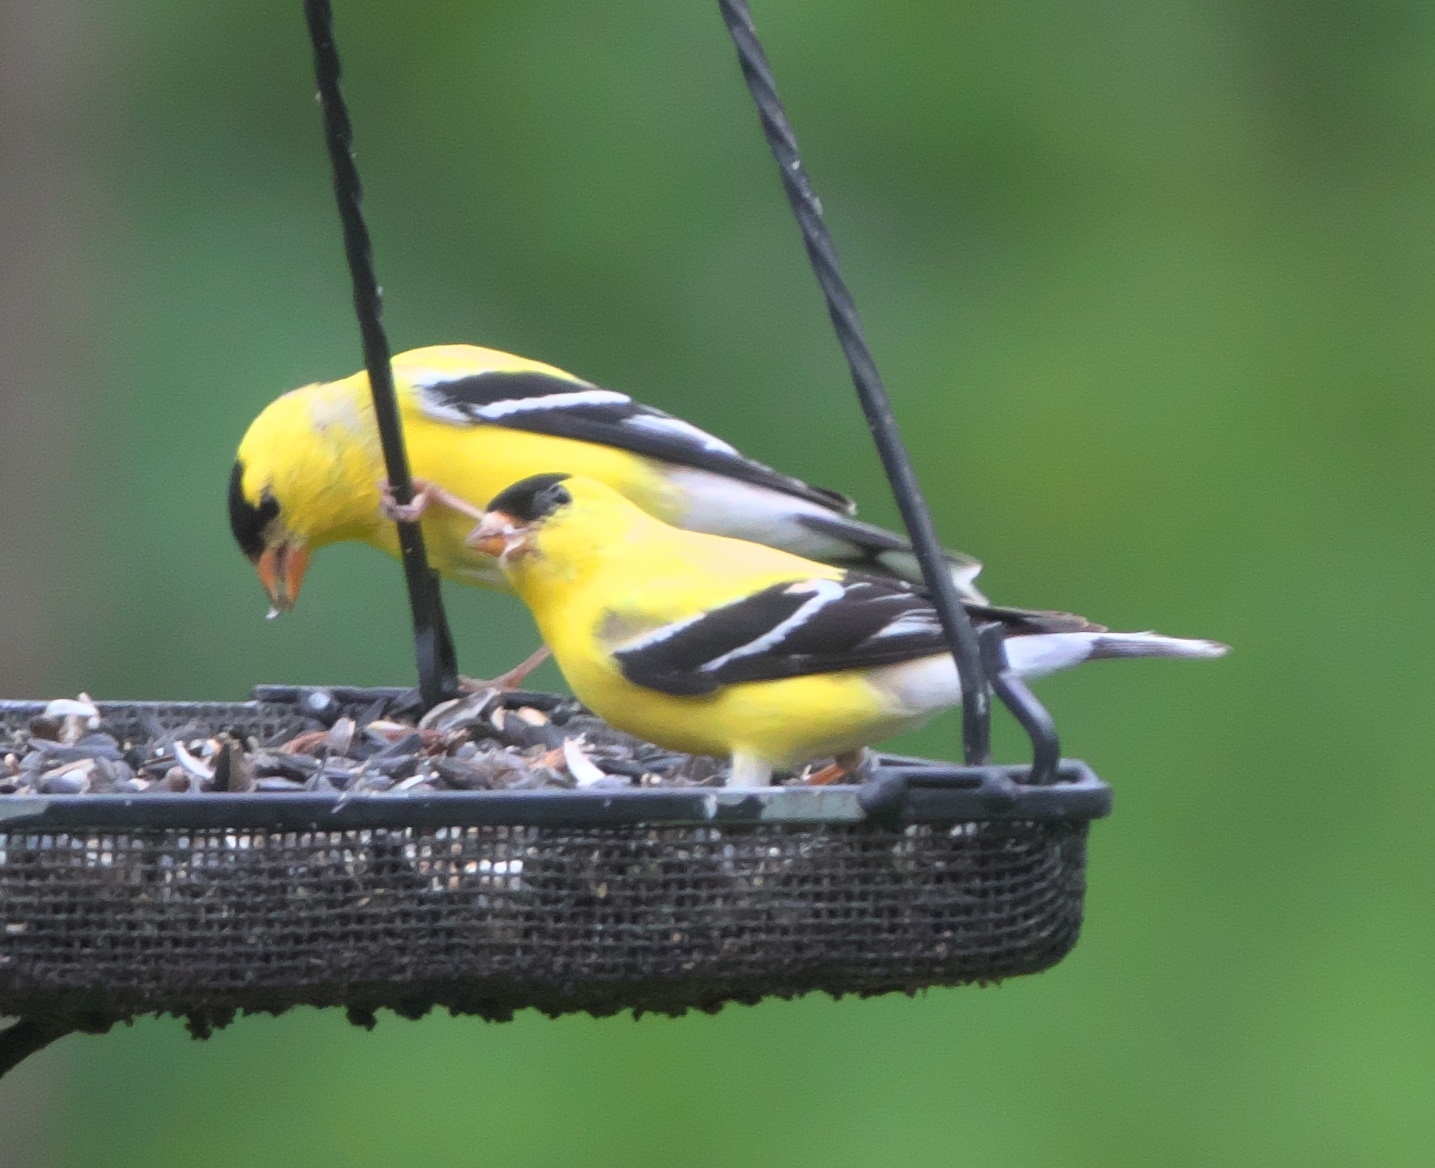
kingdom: Animalia
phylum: Chordata
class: Aves
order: Passeriformes
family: Fringillidae
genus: Spinus
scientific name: Spinus tristis
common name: American goldfinch
